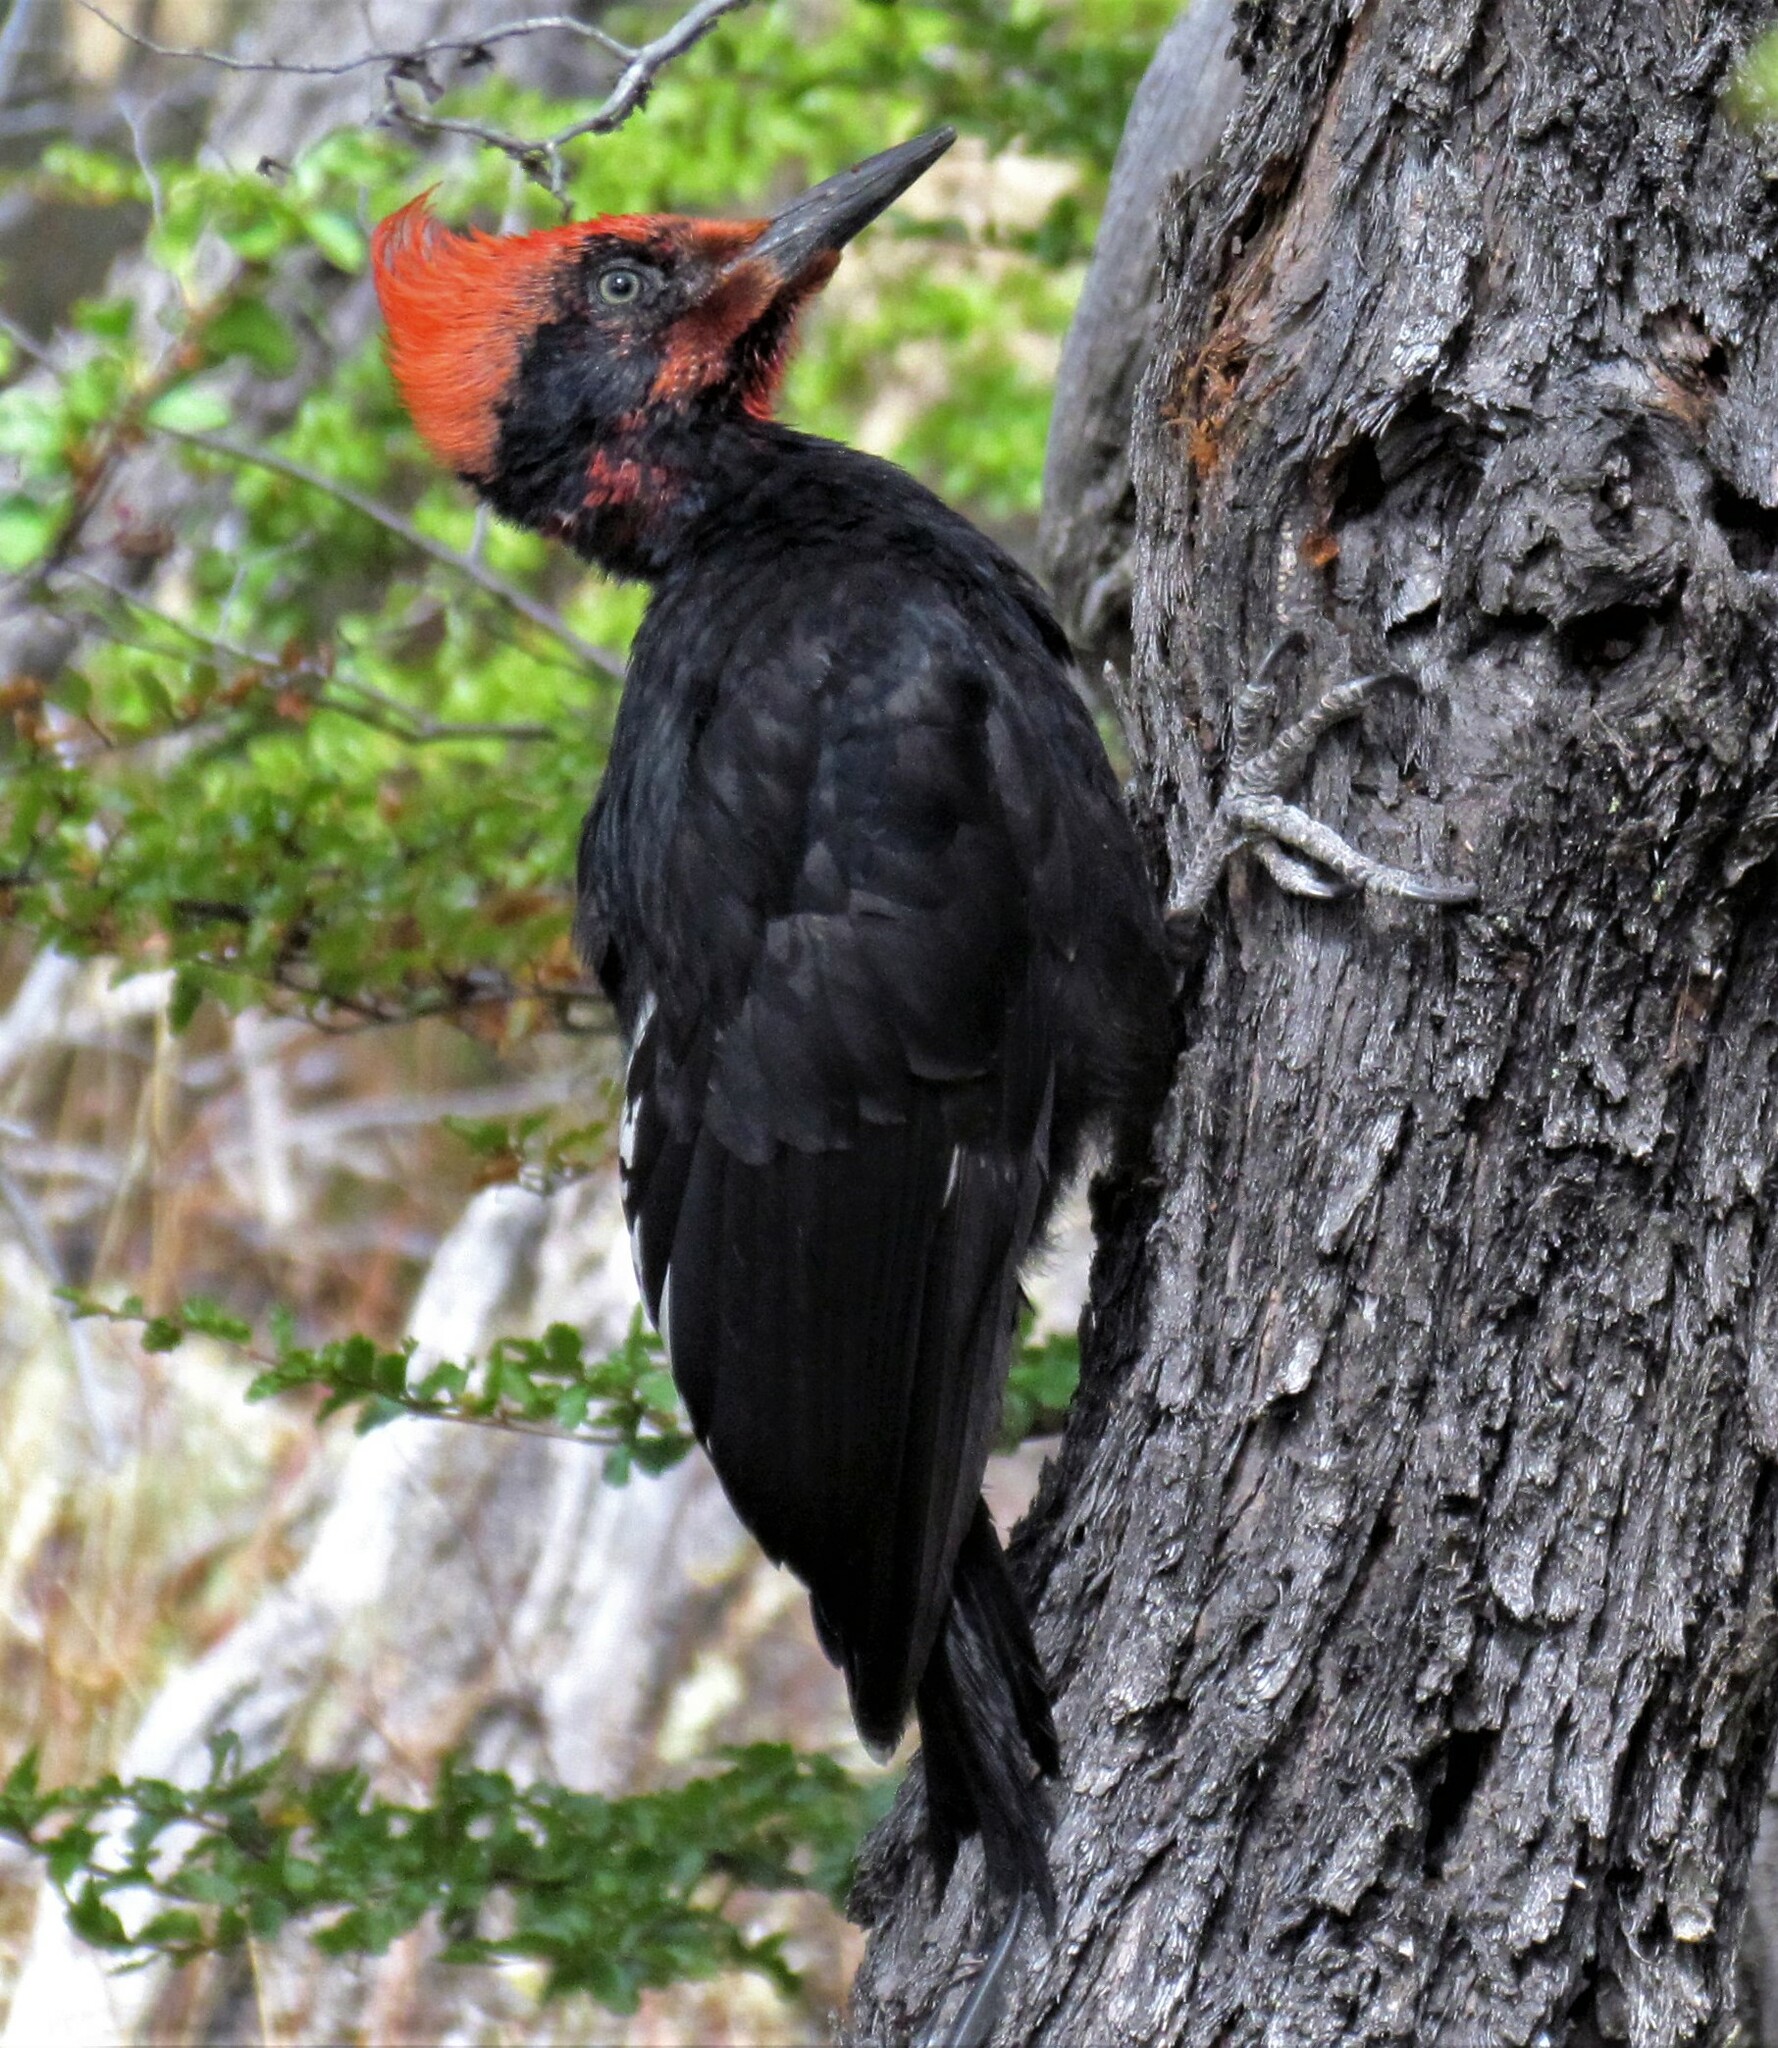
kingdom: Animalia
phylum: Chordata
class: Aves
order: Piciformes
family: Picidae
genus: Campephilus
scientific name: Campephilus magellanicus
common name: Magellanic woodpecker
